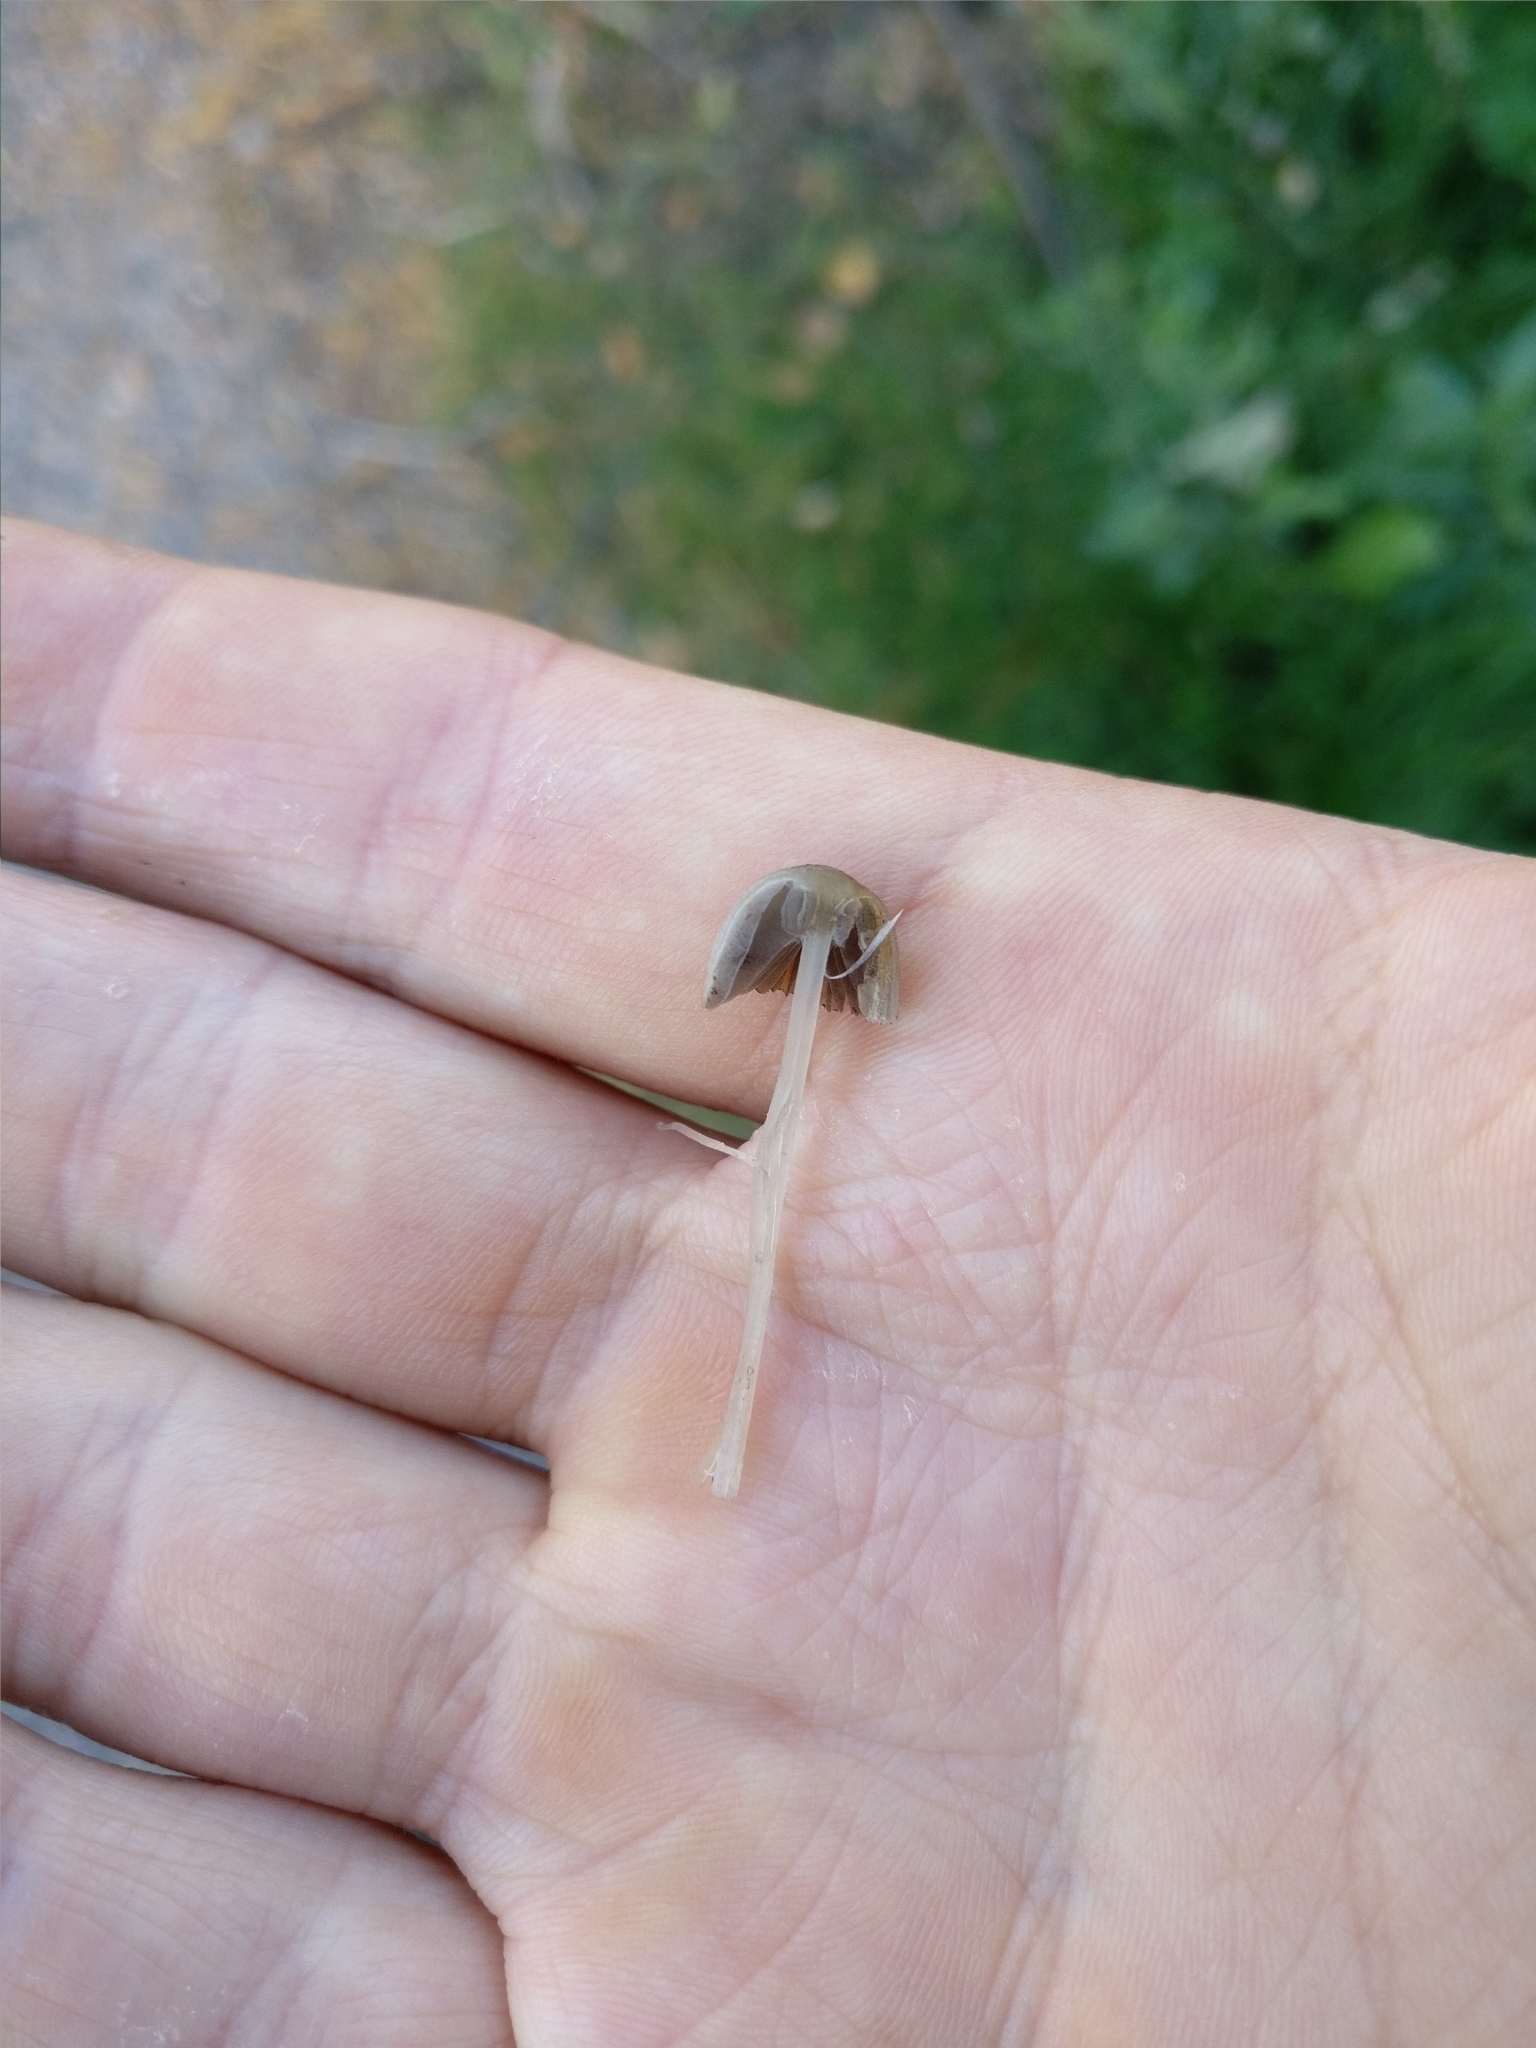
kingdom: Fungi
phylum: Basidiomycota
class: Agaricomycetes
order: Agaricales
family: Psathyrellaceae
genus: Coprinellus
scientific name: Coprinellus disseminatus
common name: Fairies' bonnets
